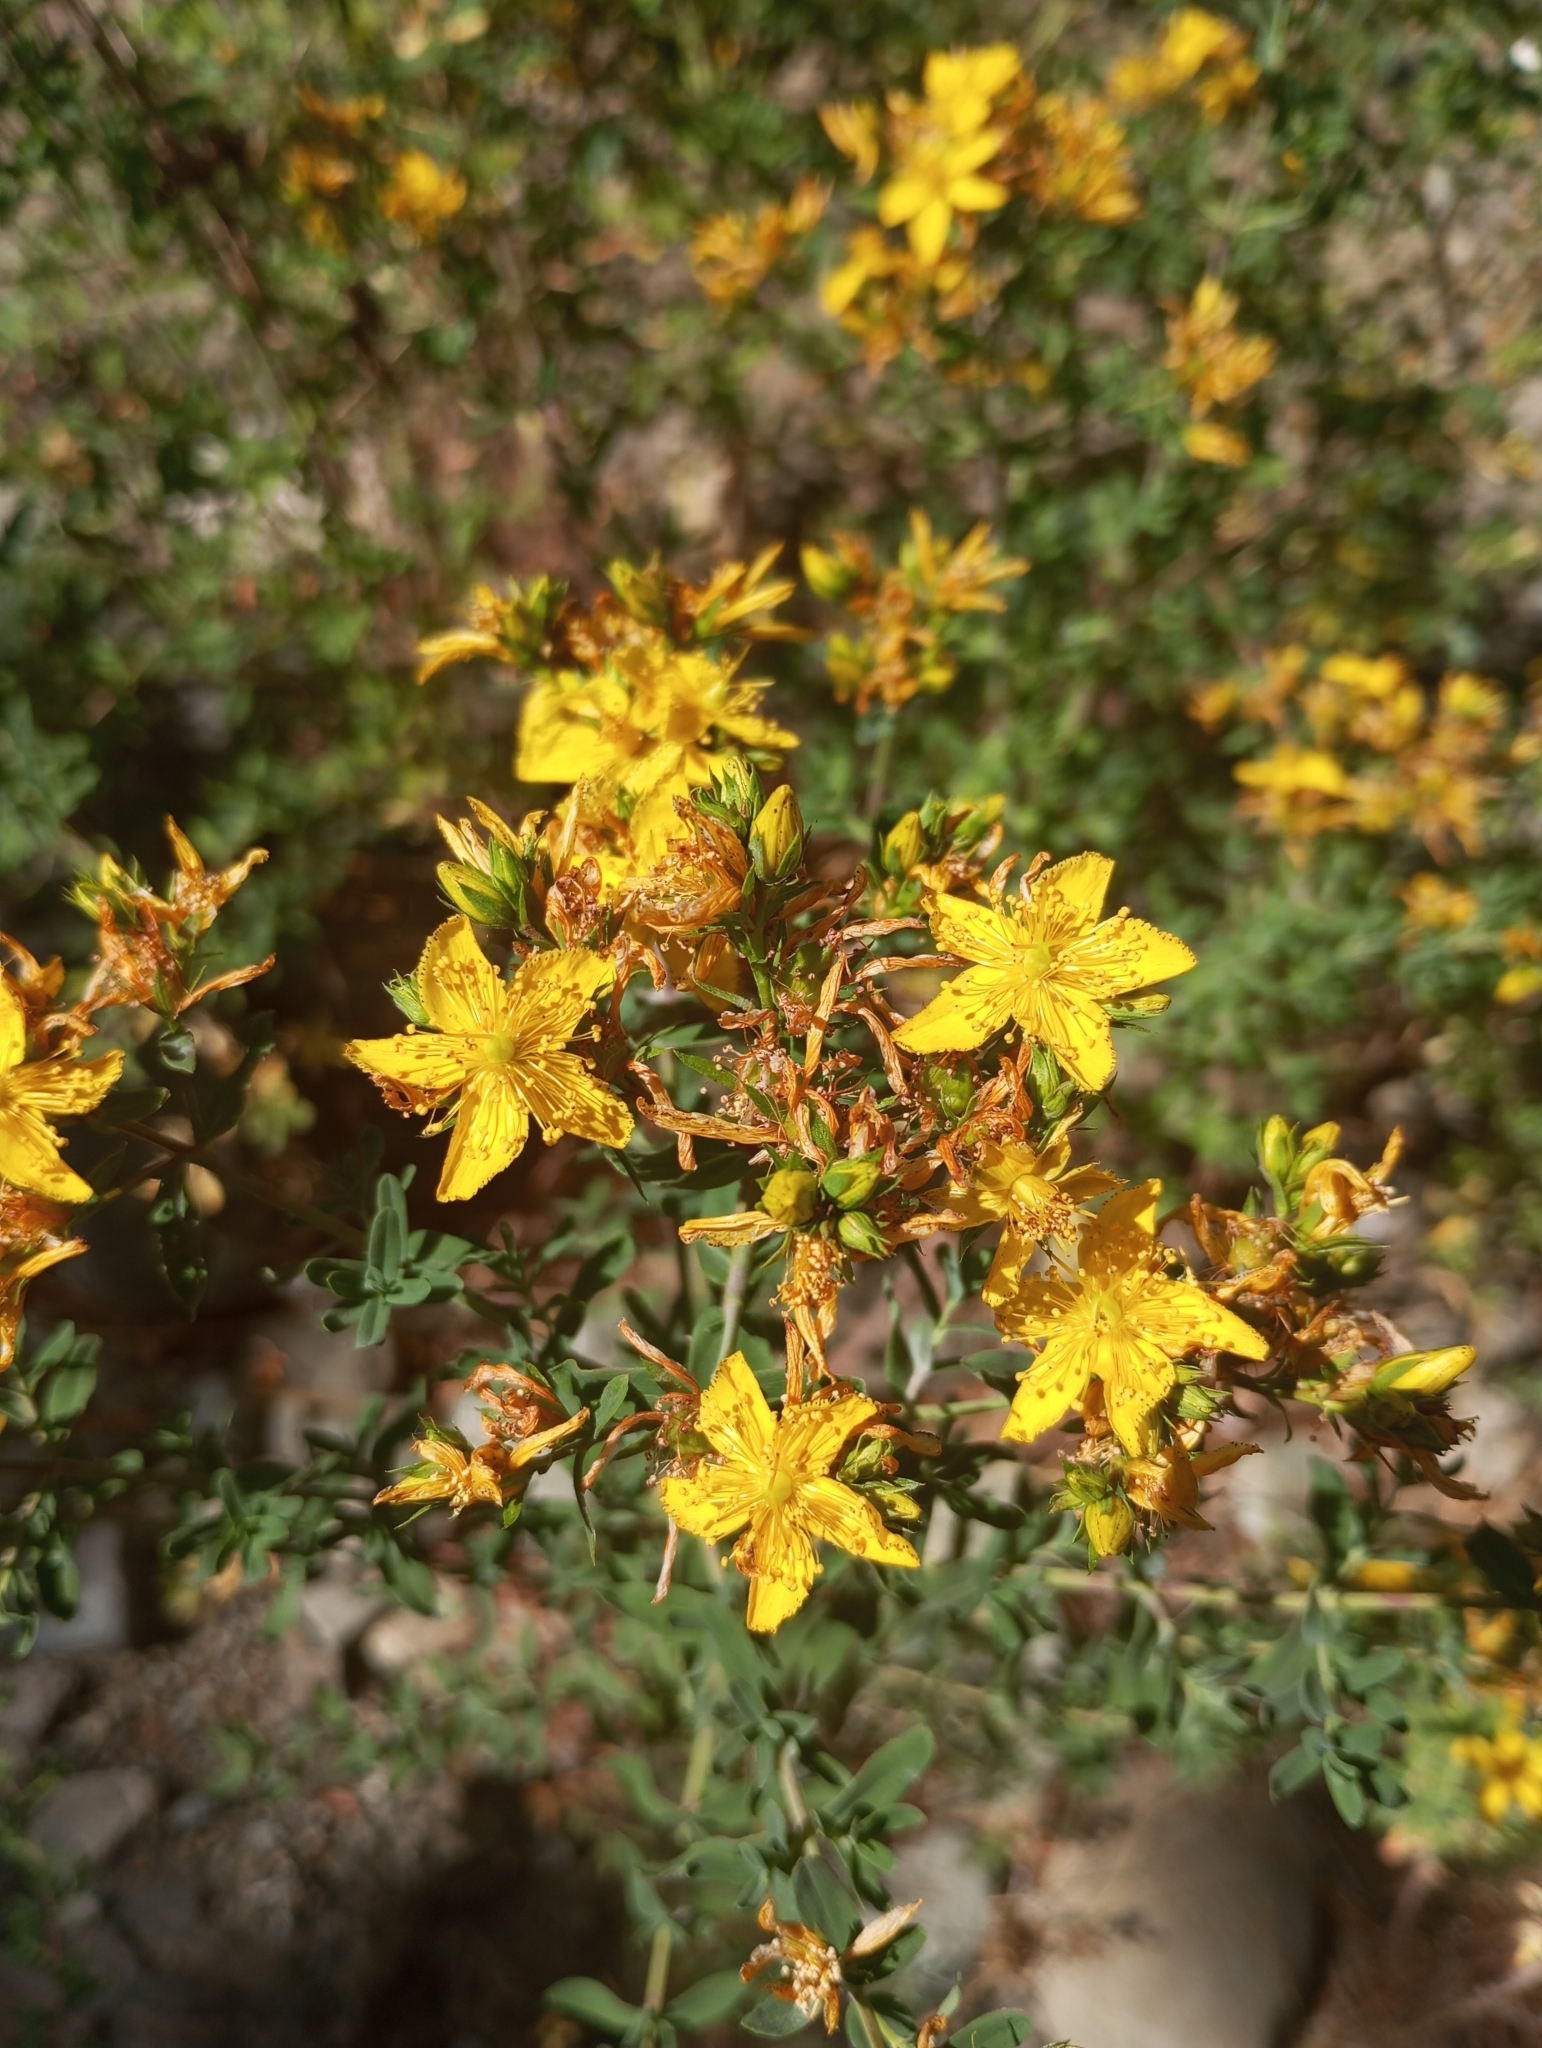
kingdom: Plantae
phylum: Tracheophyta
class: Magnoliopsida
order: Malpighiales
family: Hypericaceae
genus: Hypericum
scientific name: Hypericum perforatum
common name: Common st. johnswort
